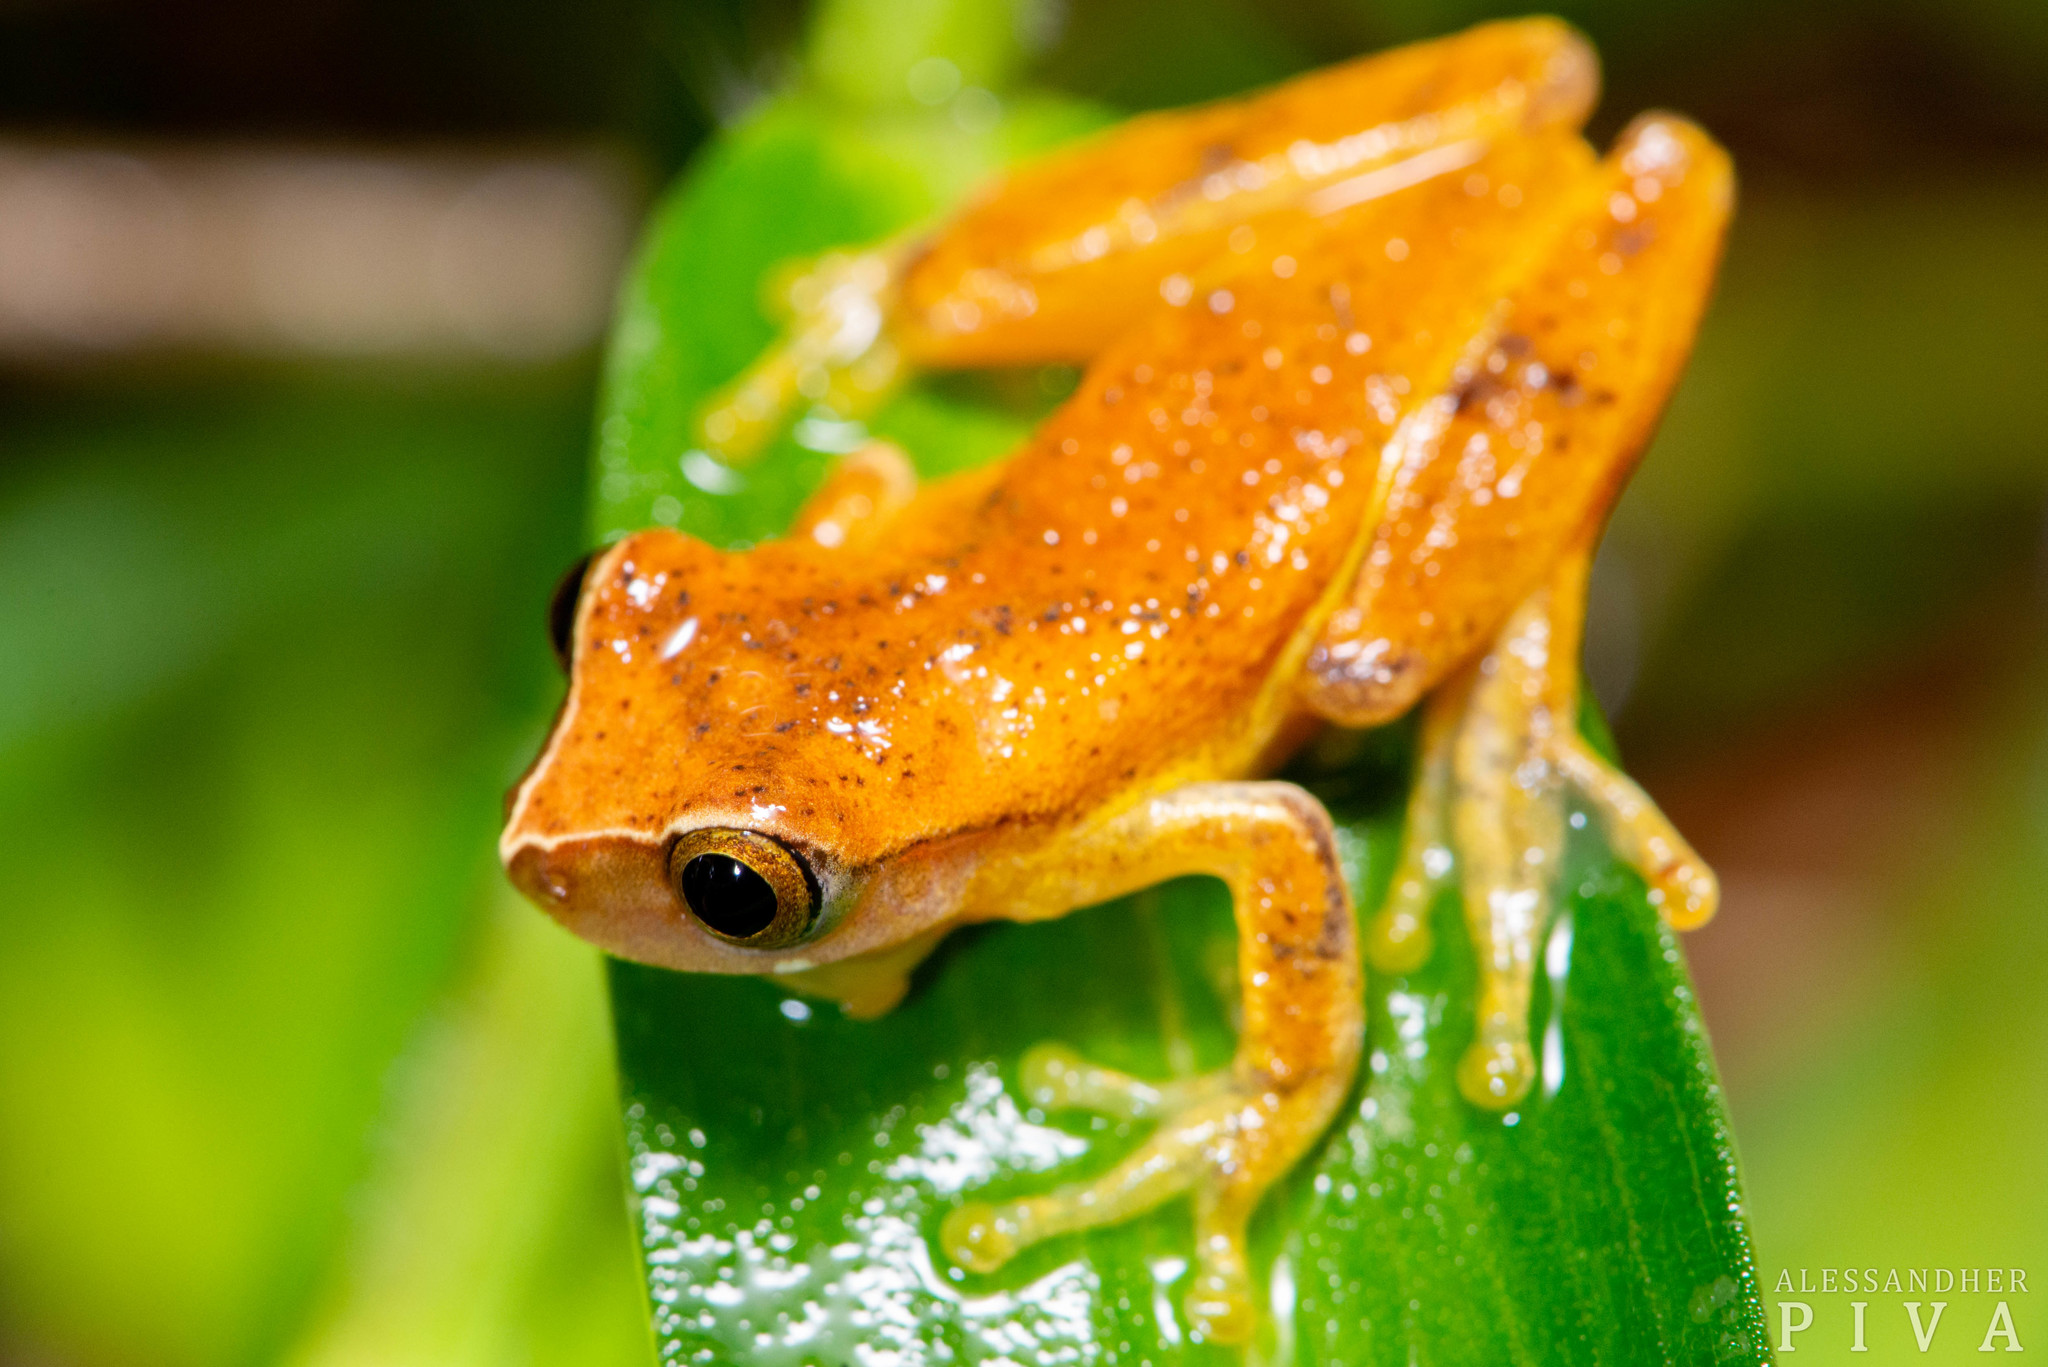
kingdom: Animalia
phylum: Chordata
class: Amphibia
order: Anura
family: Hylidae
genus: Dendropsophus
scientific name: Dendropsophus werneri
